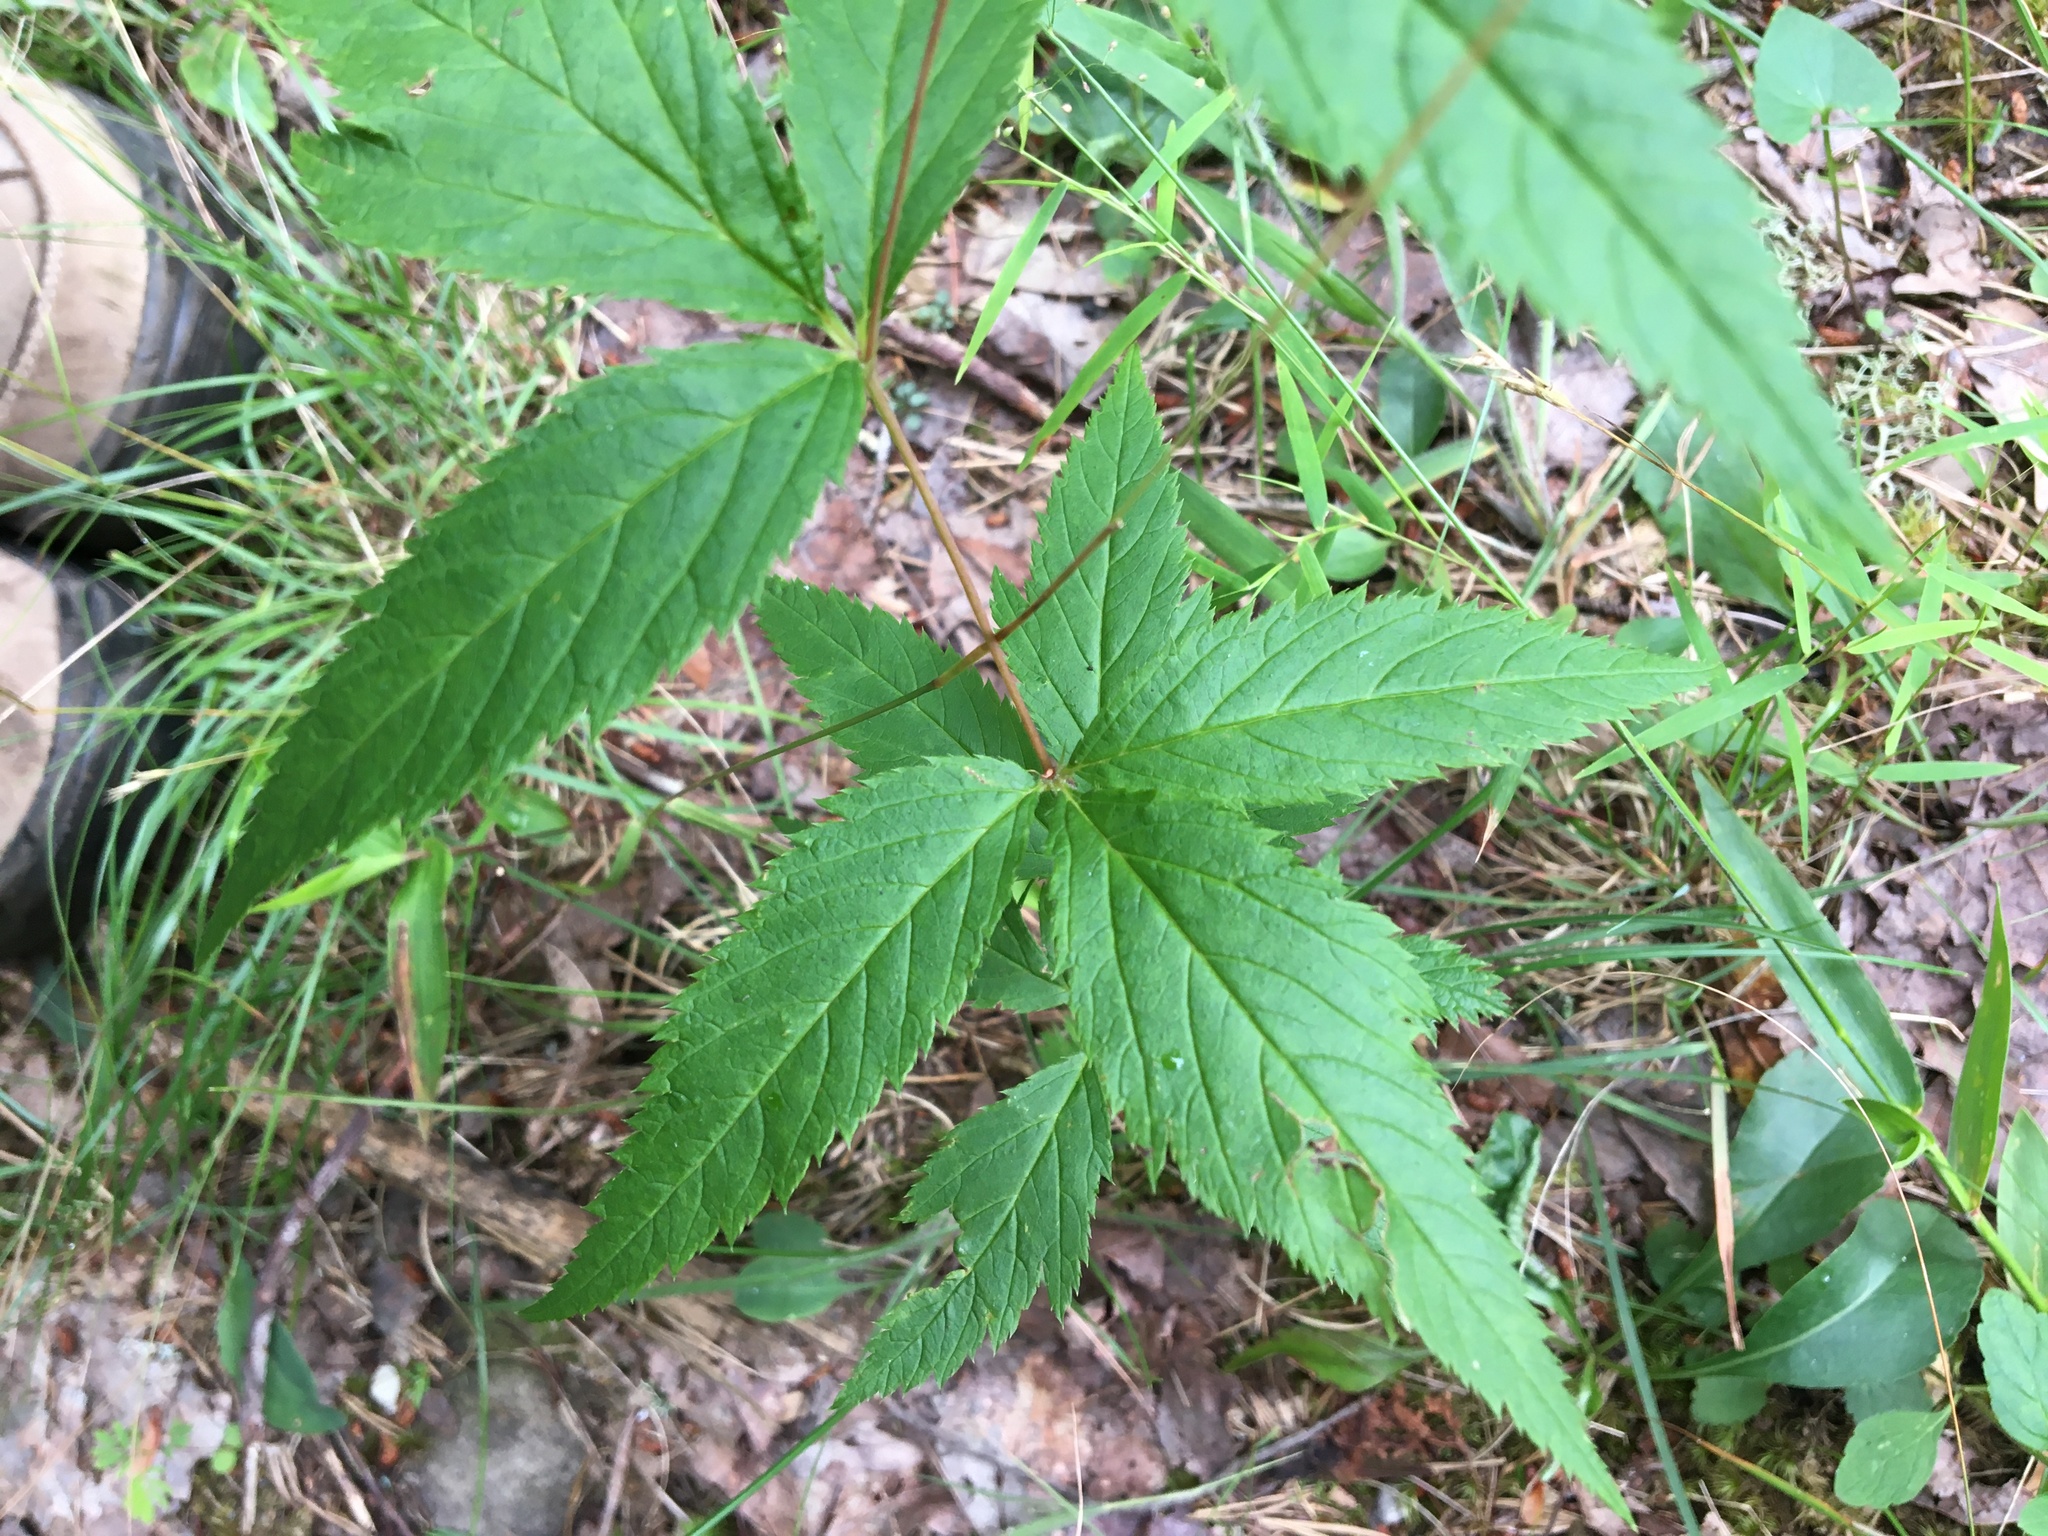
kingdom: Plantae
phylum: Tracheophyta
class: Magnoliopsida
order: Rosales
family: Rosaceae
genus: Gillenia
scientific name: Gillenia trifoliata
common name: Bowman's-root
